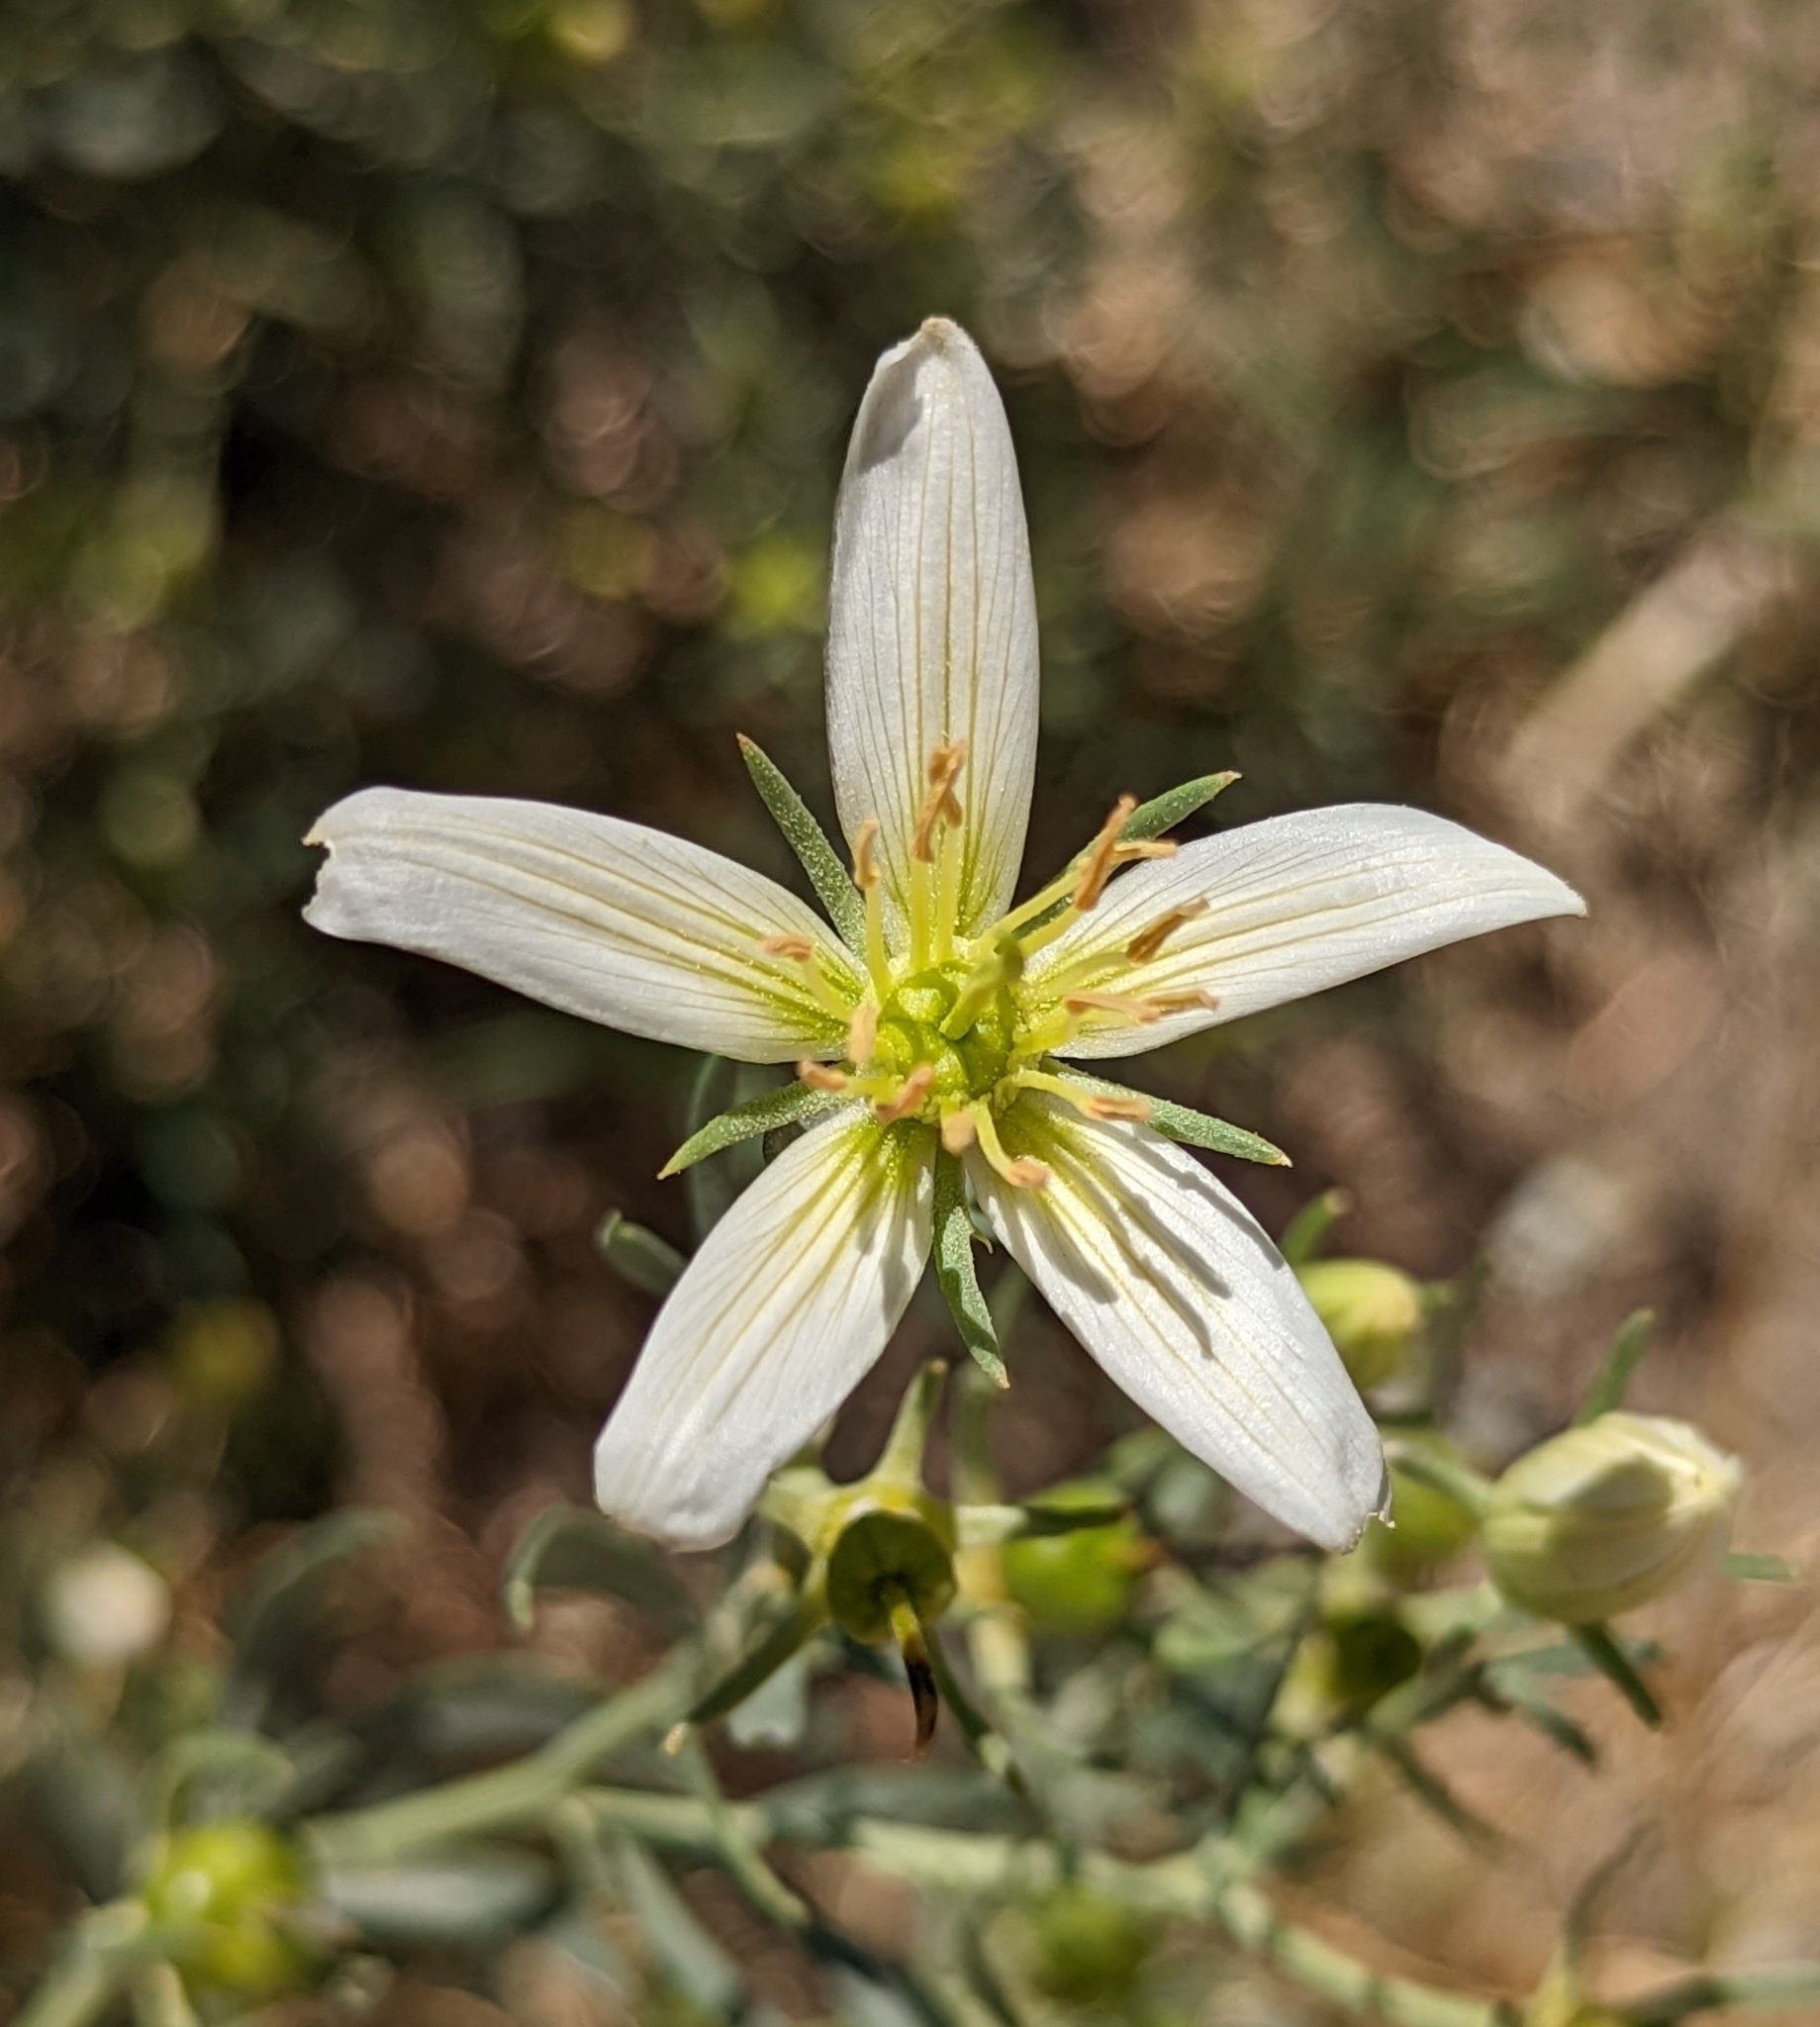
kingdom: Plantae
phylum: Tracheophyta
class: Magnoliopsida
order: Sapindales
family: Tetradiclidaceae
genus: Peganum
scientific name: Peganum harmala
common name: Harmal peganum
